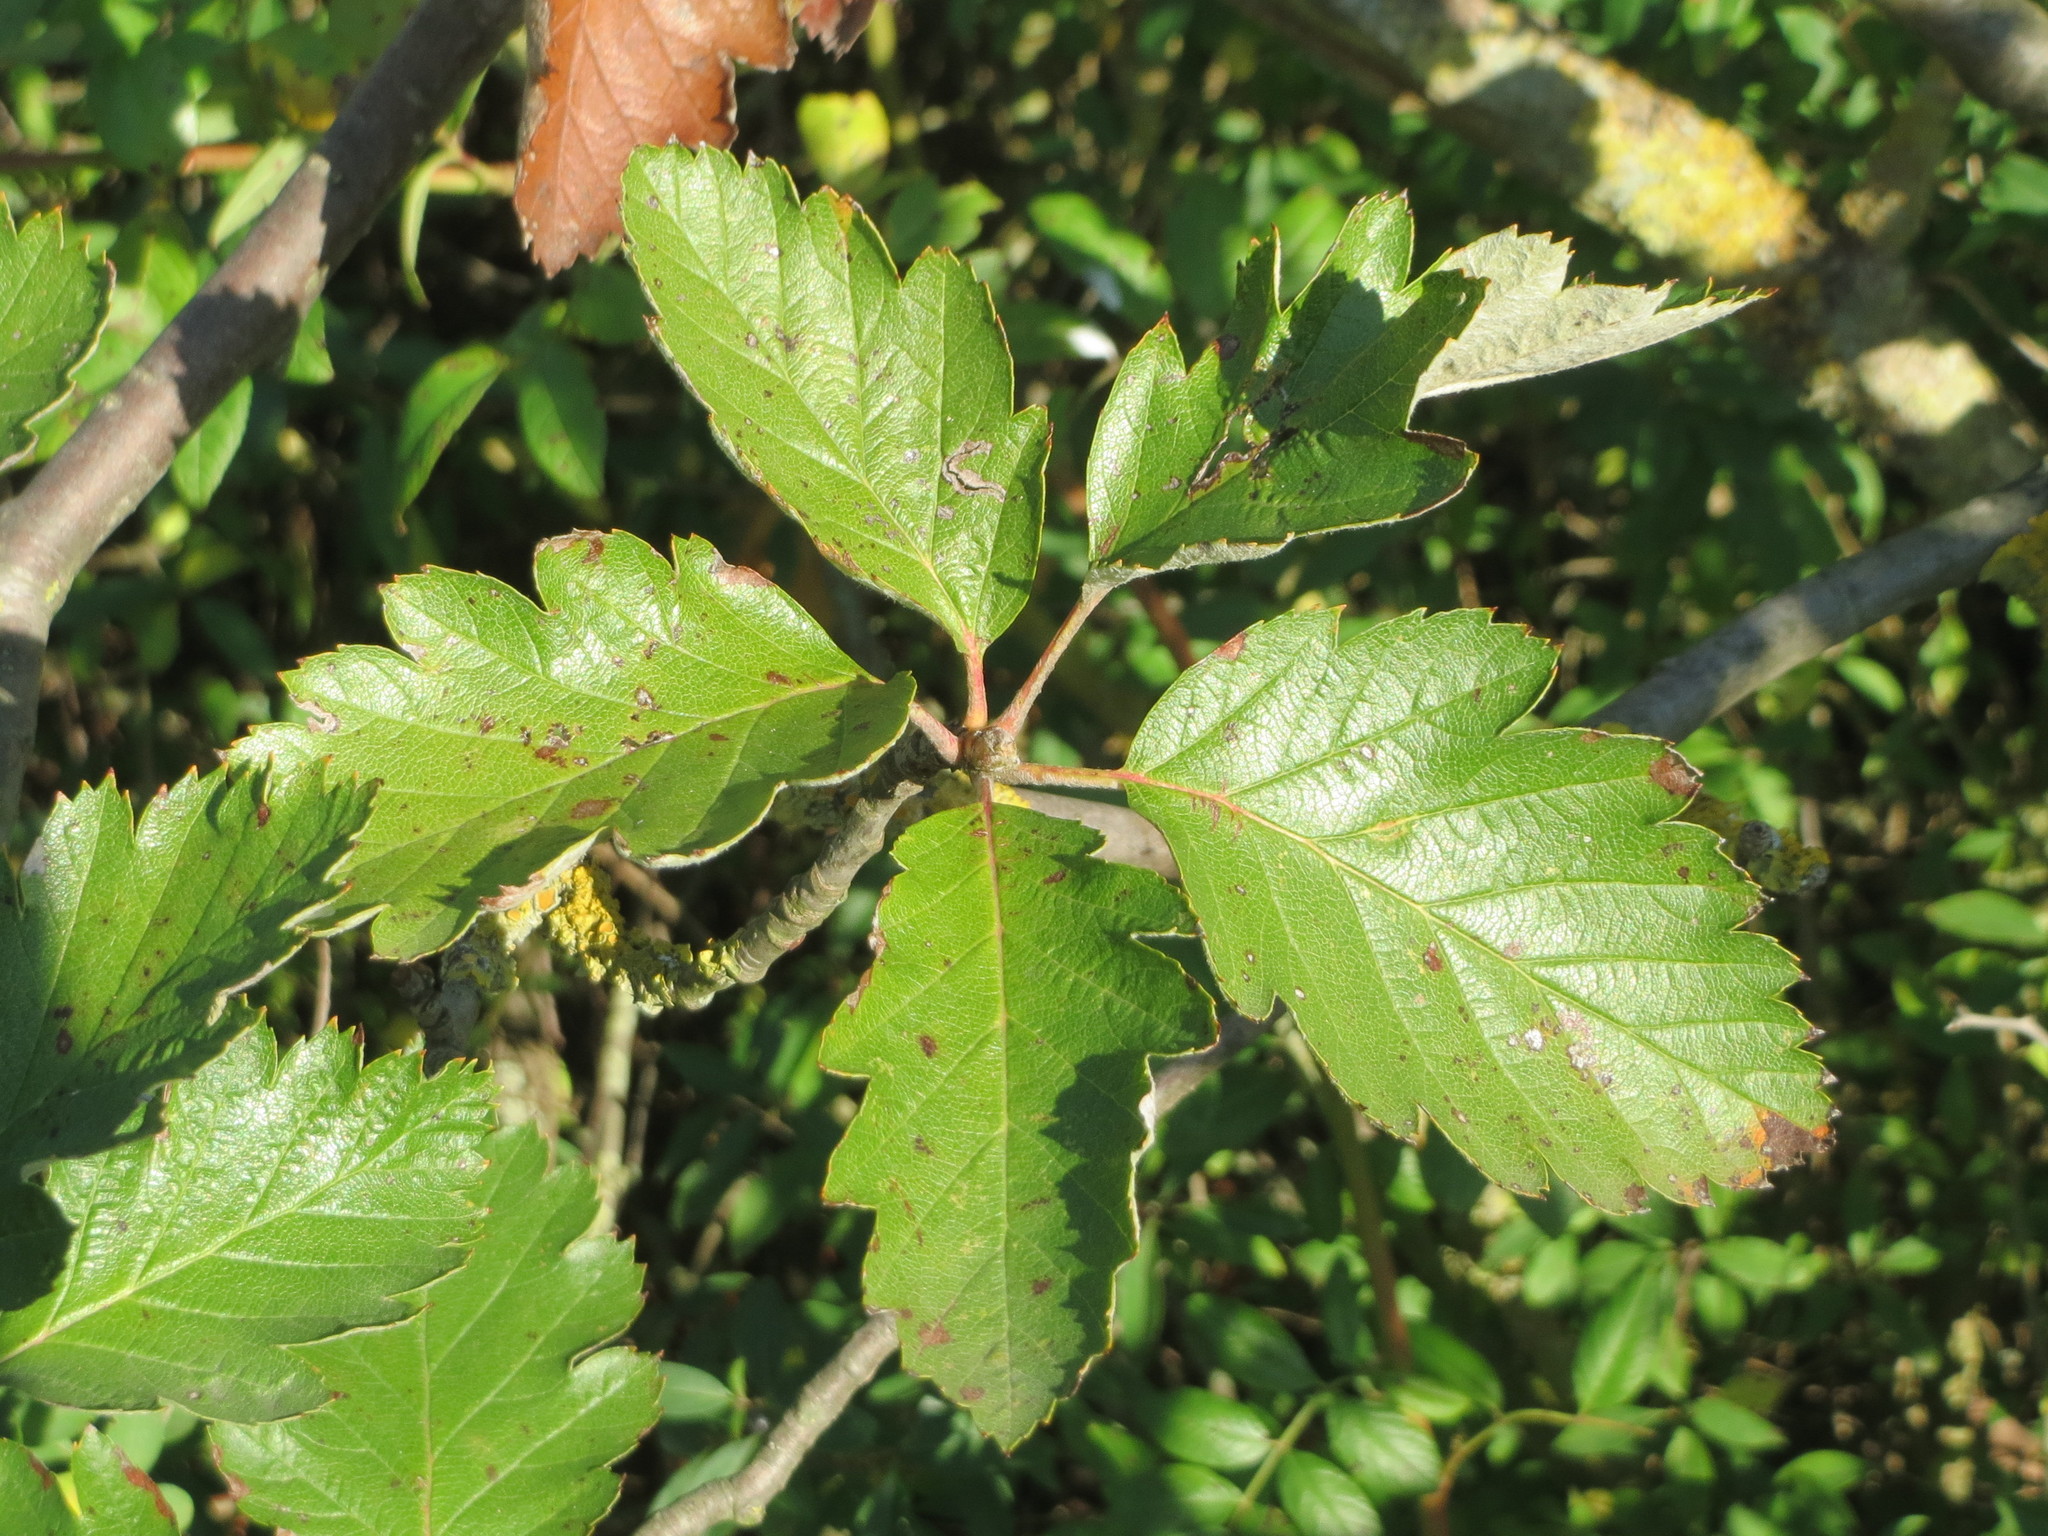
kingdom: Plantae
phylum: Tracheophyta
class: Magnoliopsida
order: Rosales
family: Rosaceae
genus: Scandosorbus
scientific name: Scandosorbus intermedia
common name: Swedish whitebeam
